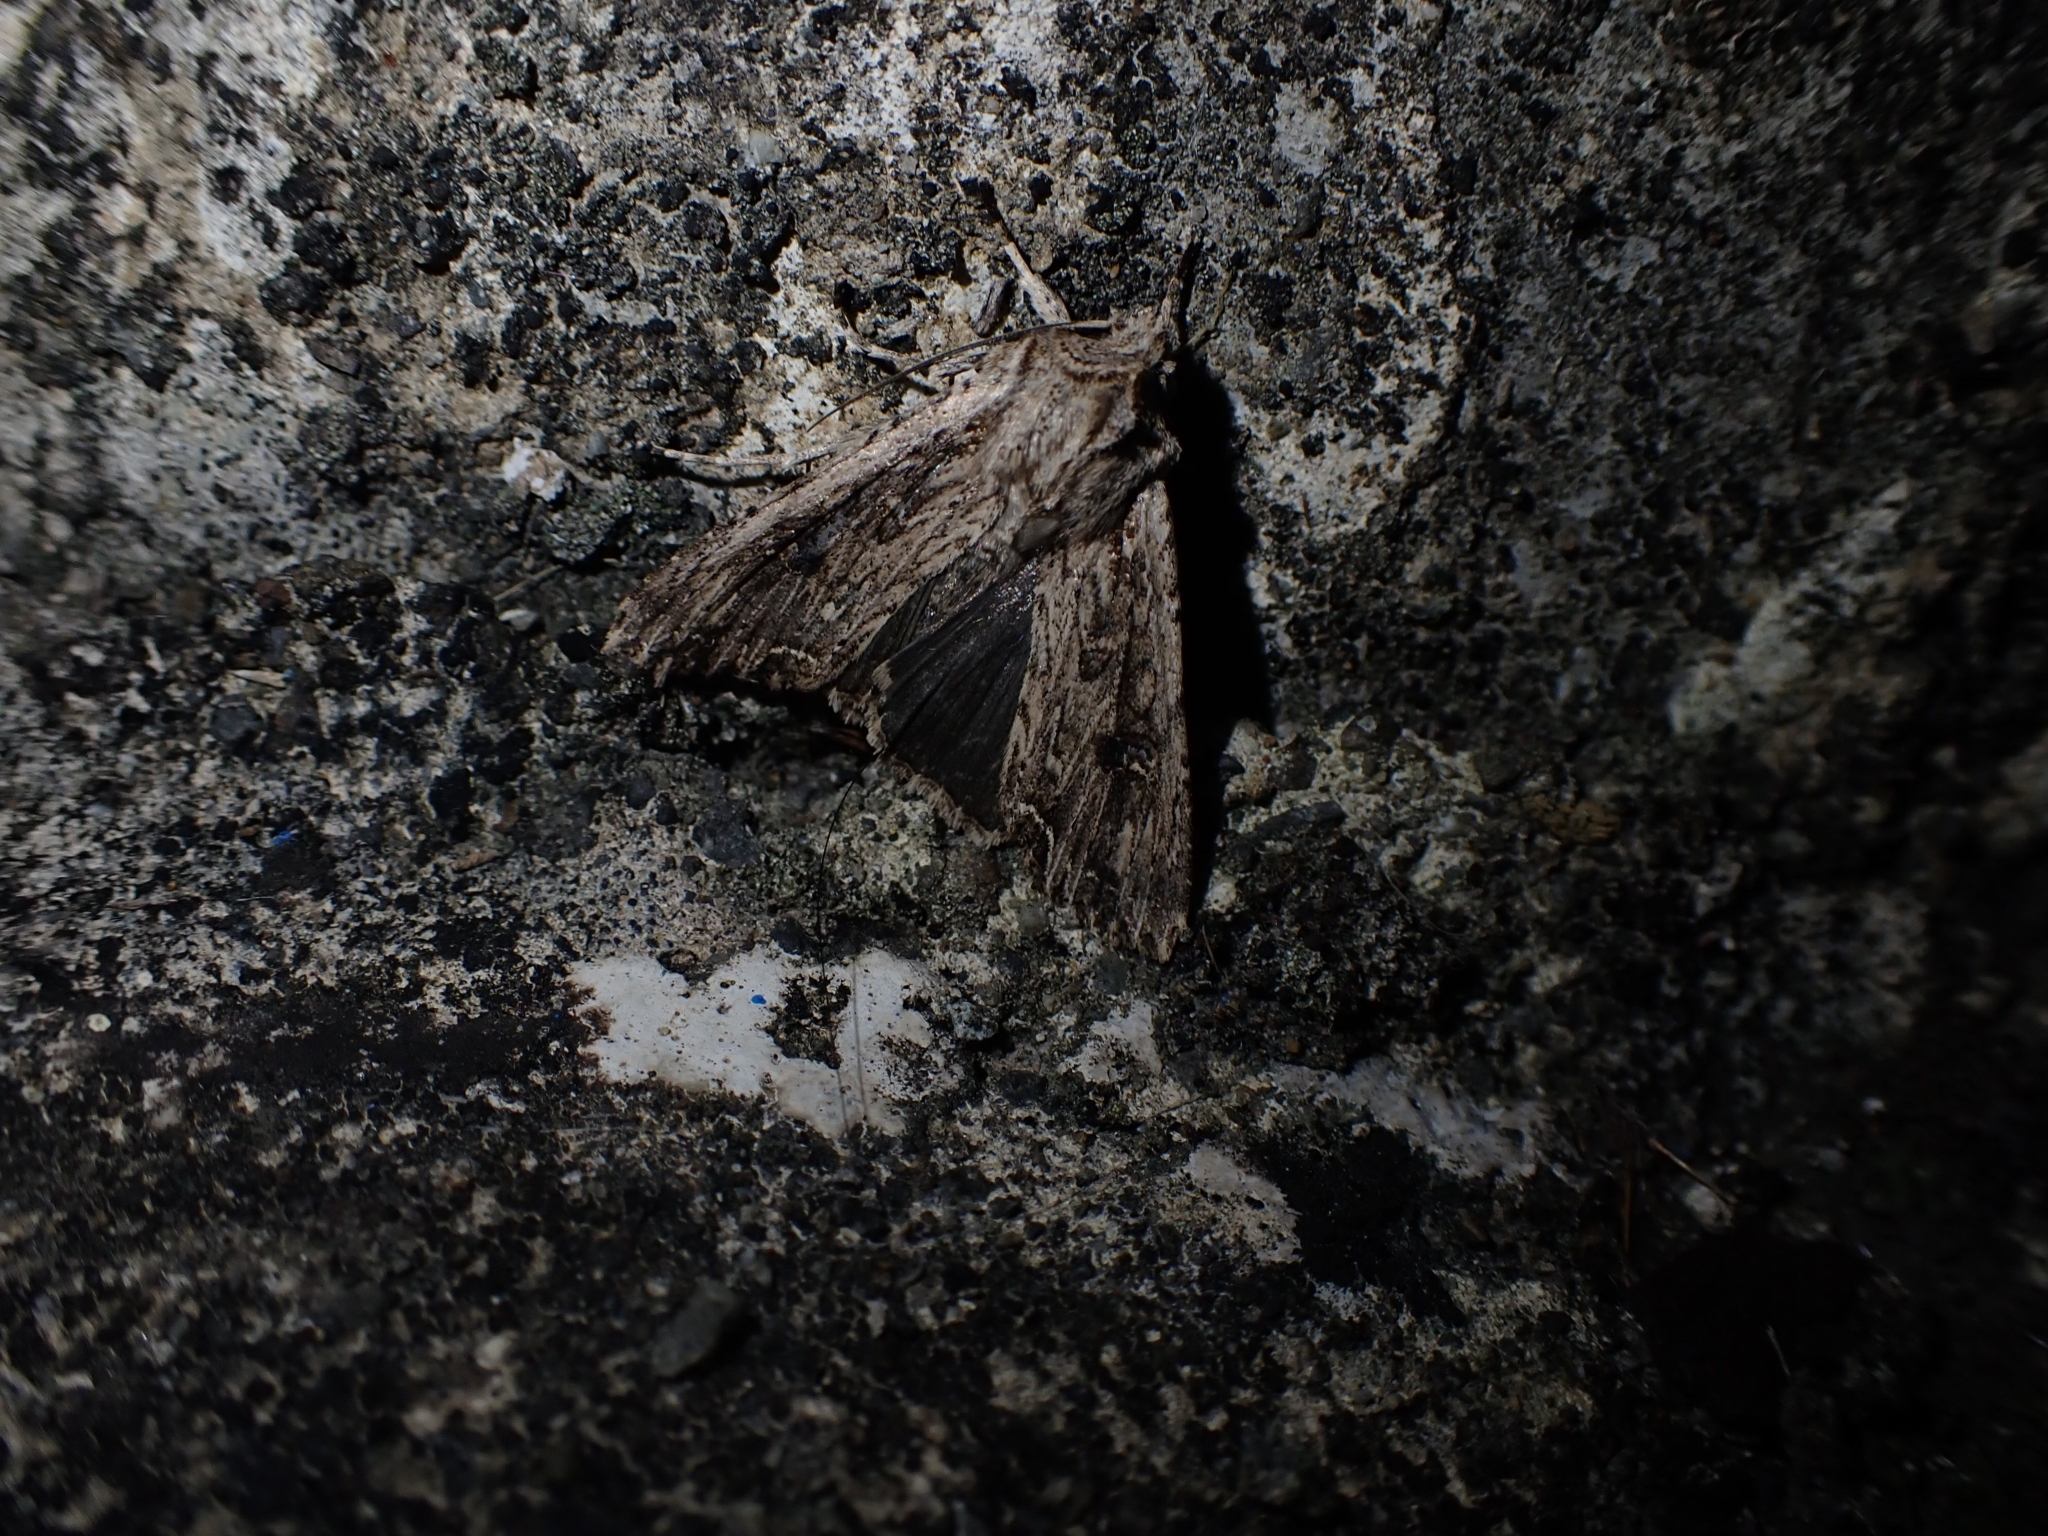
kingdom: Animalia
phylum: Arthropoda
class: Insecta
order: Lepidoptera
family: Noctuidae
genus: Ichneutica
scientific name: Ichneutica lignana
